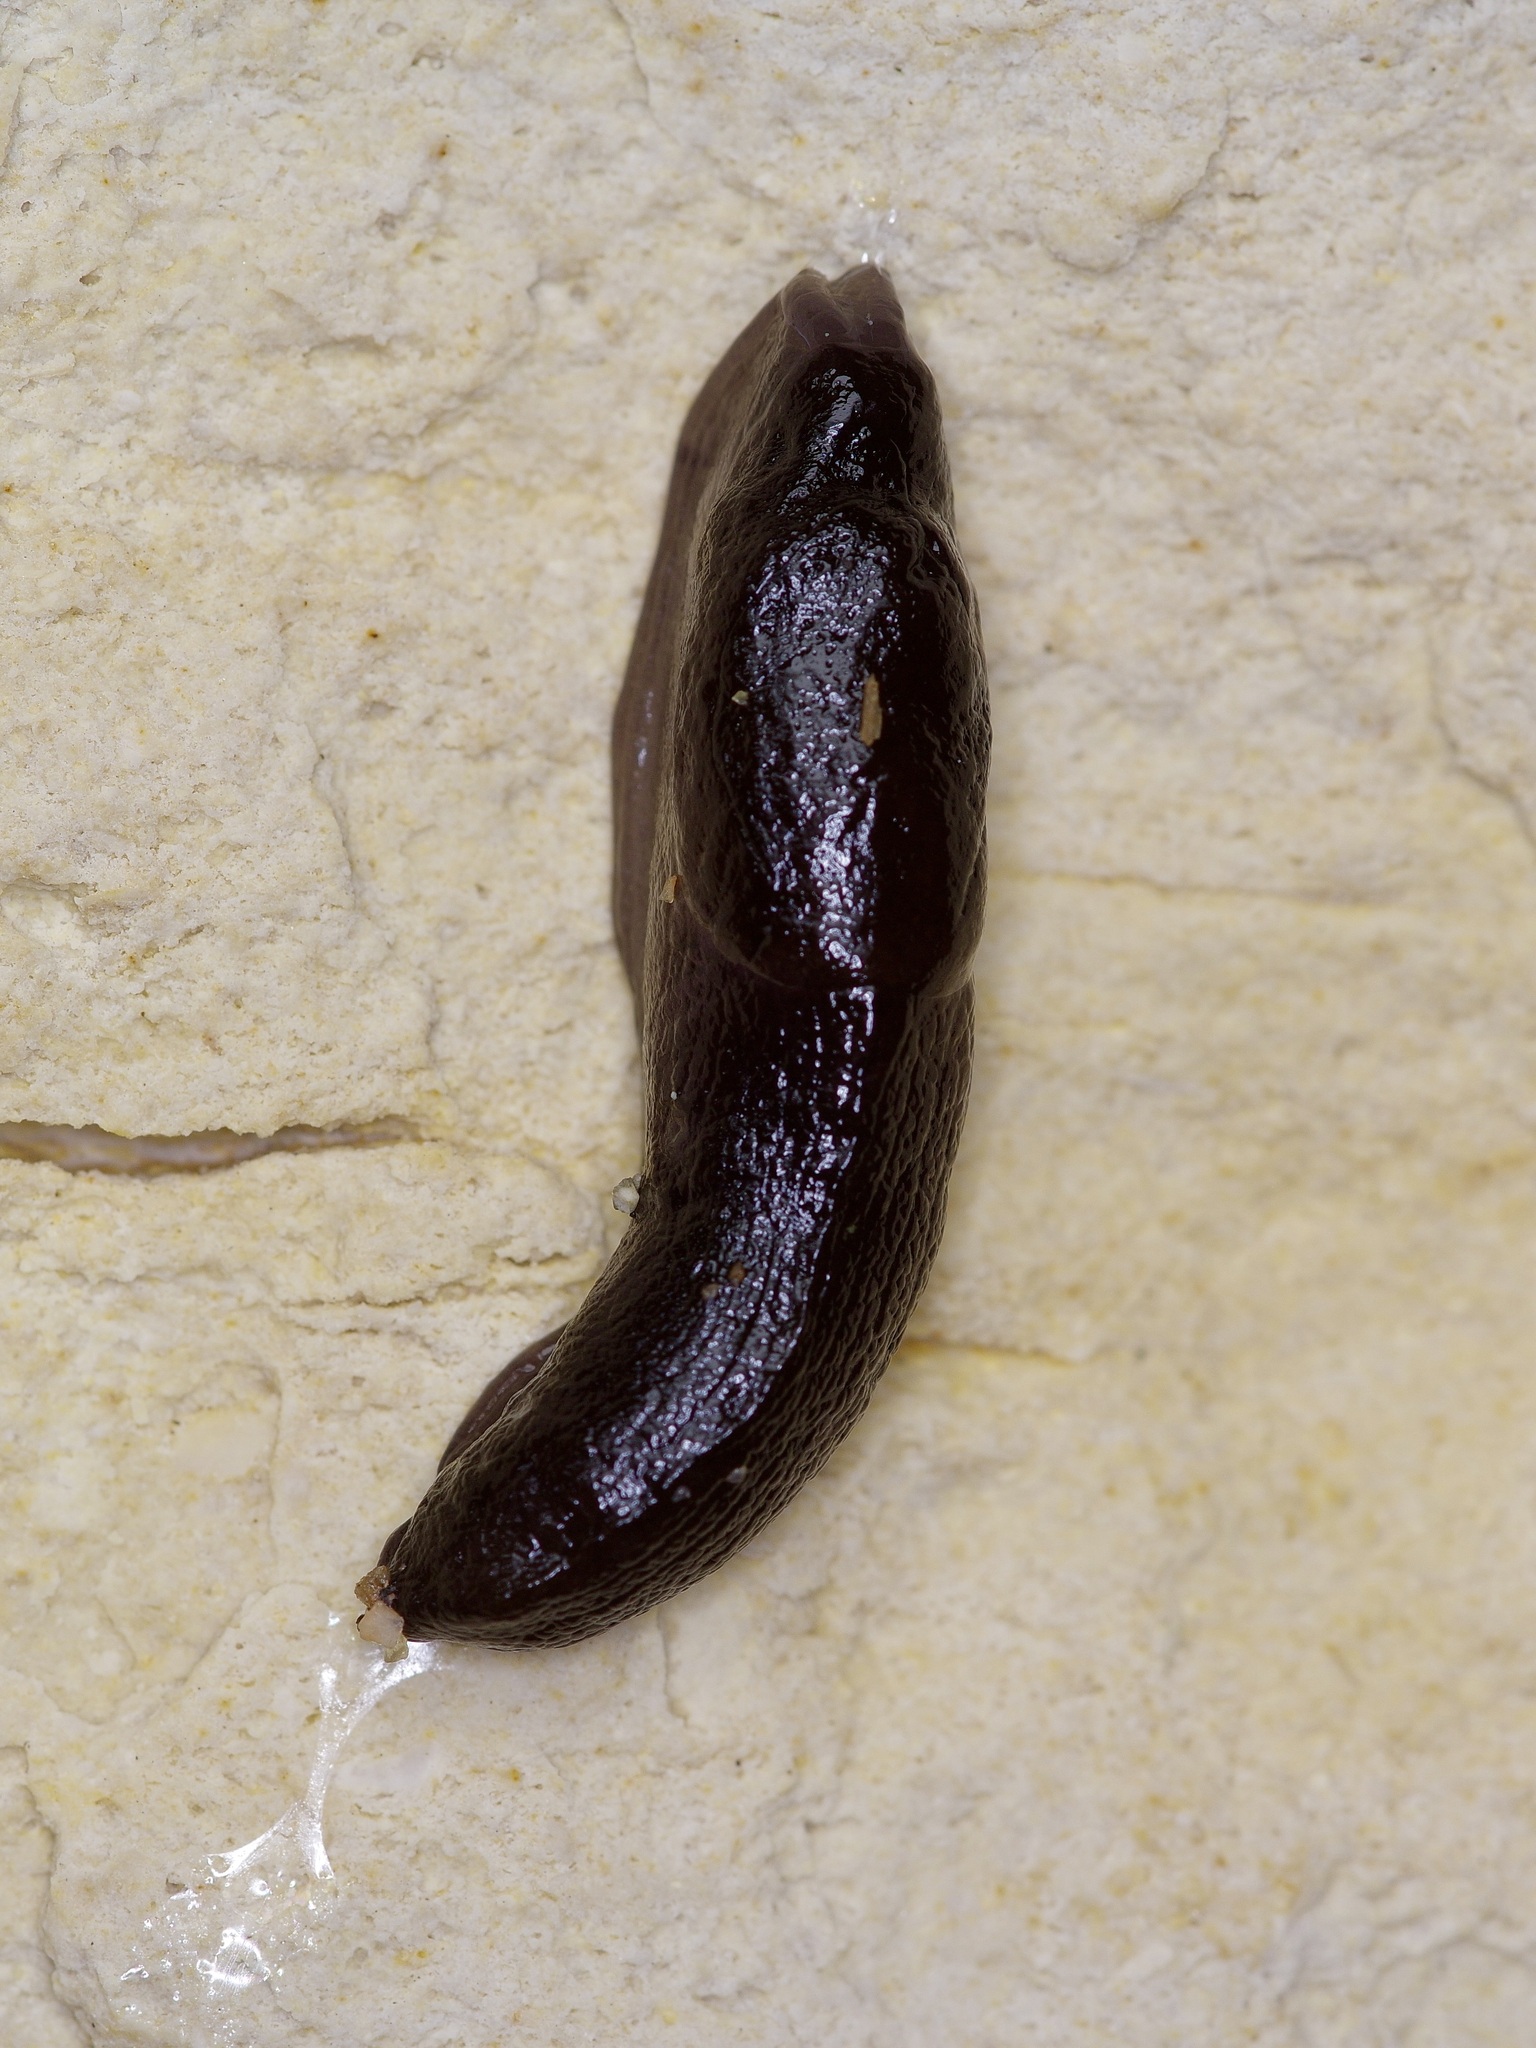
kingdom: Animalia
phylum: Mollusca
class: Gastropoda
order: Stylommatophora
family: Milacidae
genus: Milax
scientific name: Milax gagates
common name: Greenhouse slug
